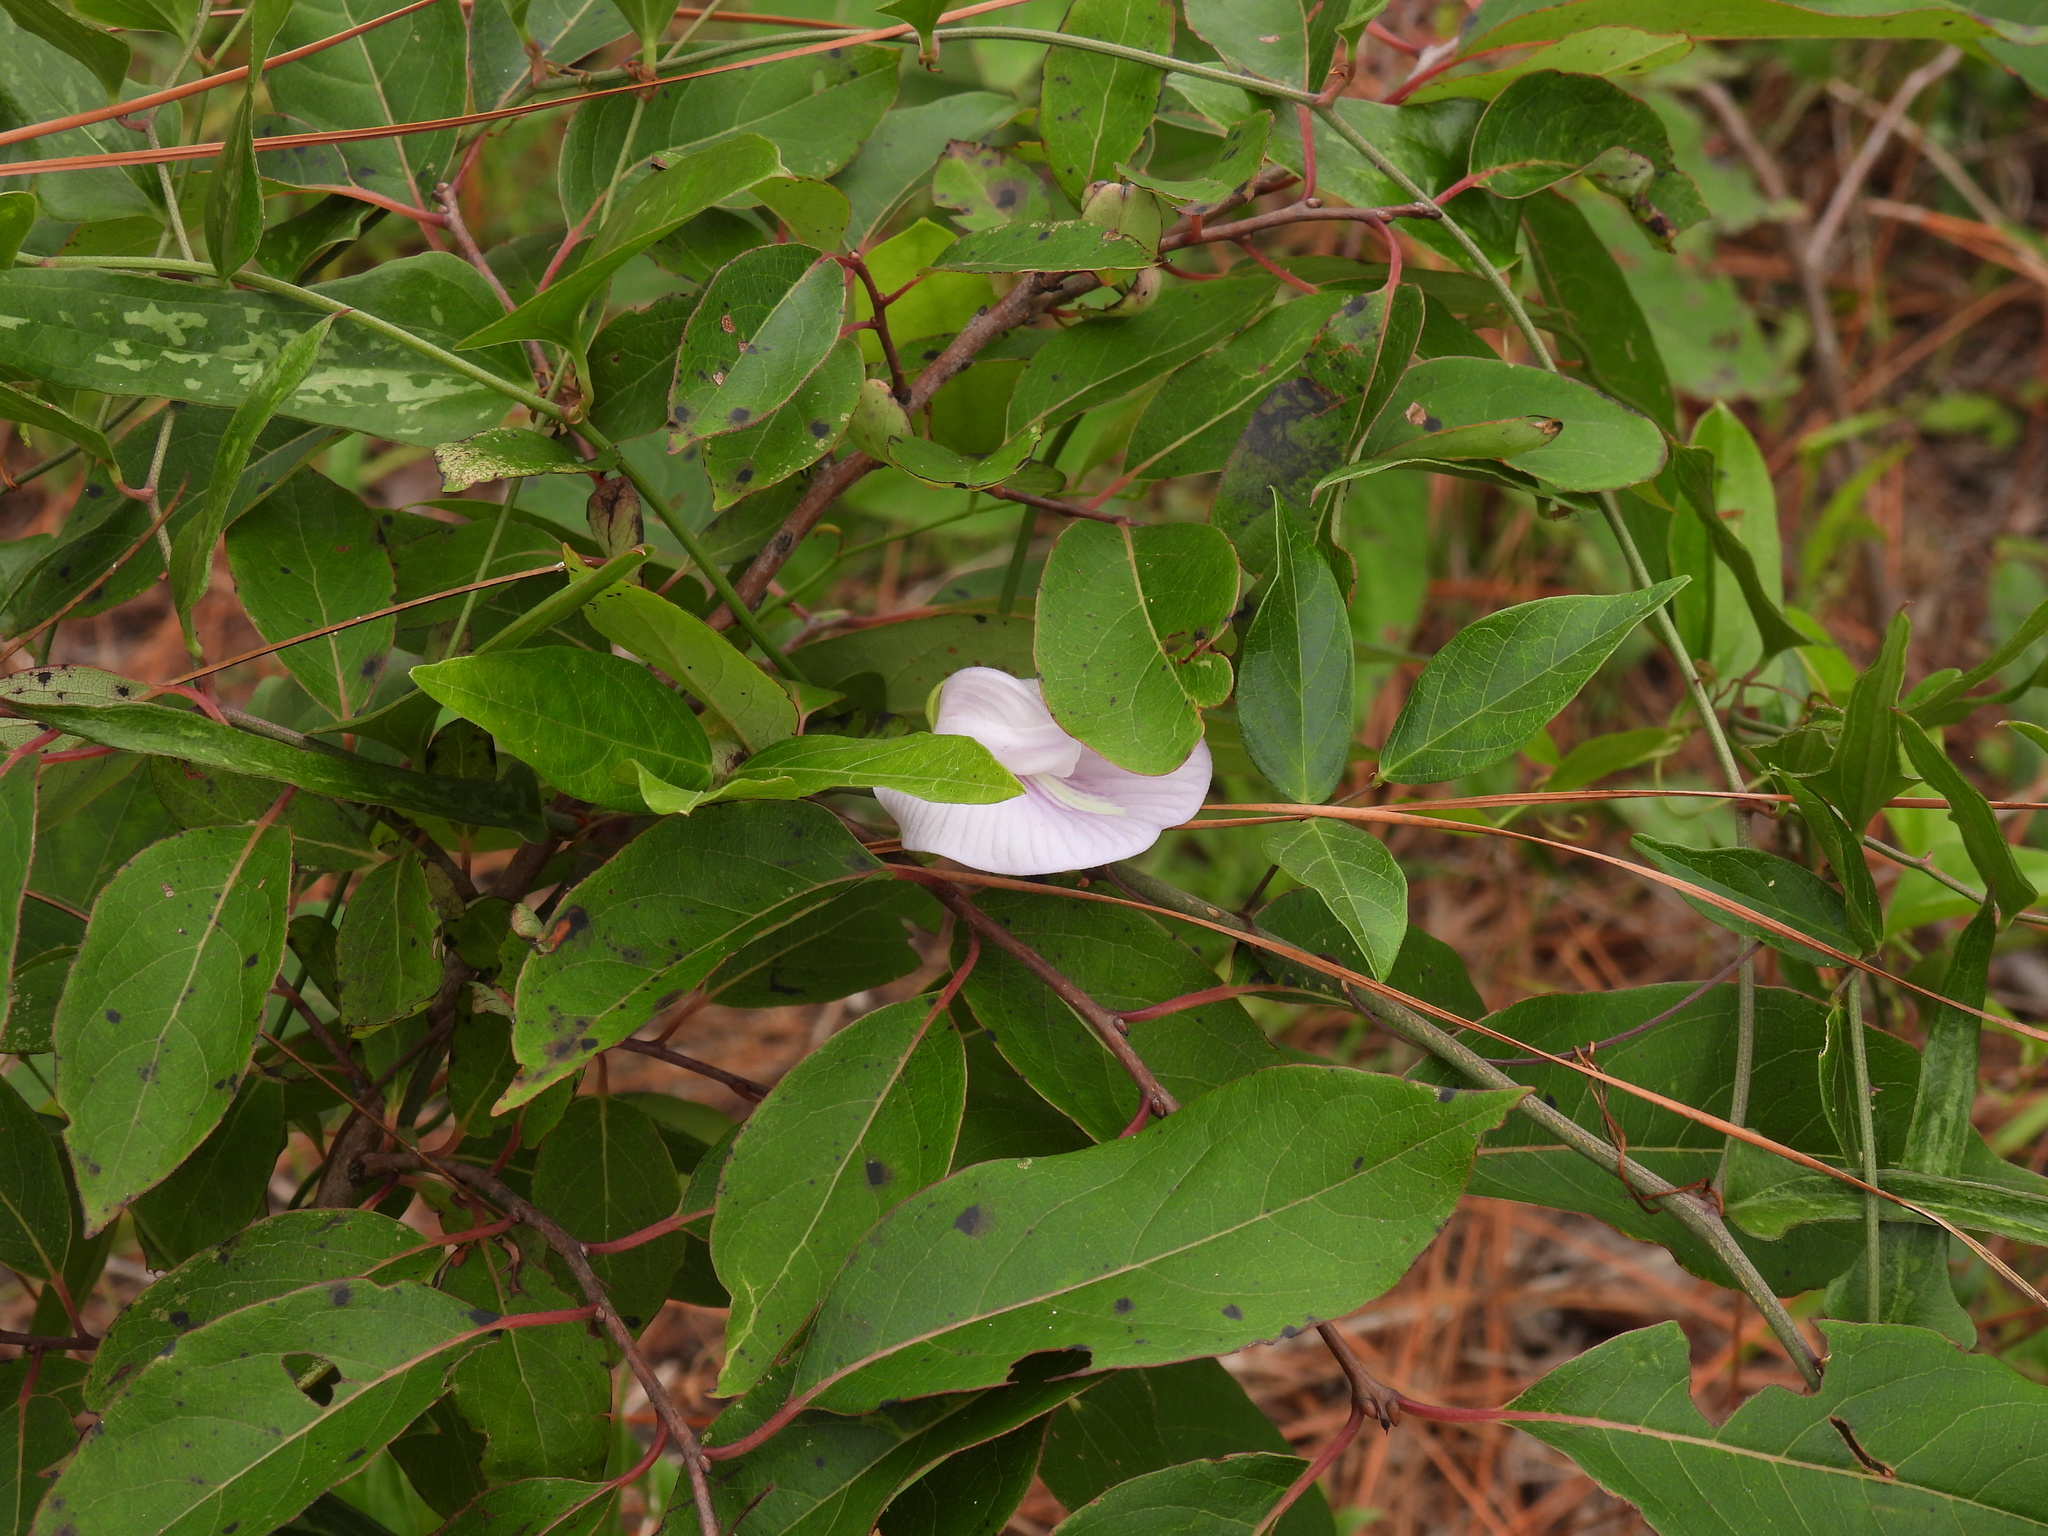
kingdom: Plantae
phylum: Tracheophyta
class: Magnoliopsida
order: Fabales
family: Fabaceae
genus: Centrosema
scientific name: Centrosema arenicola
